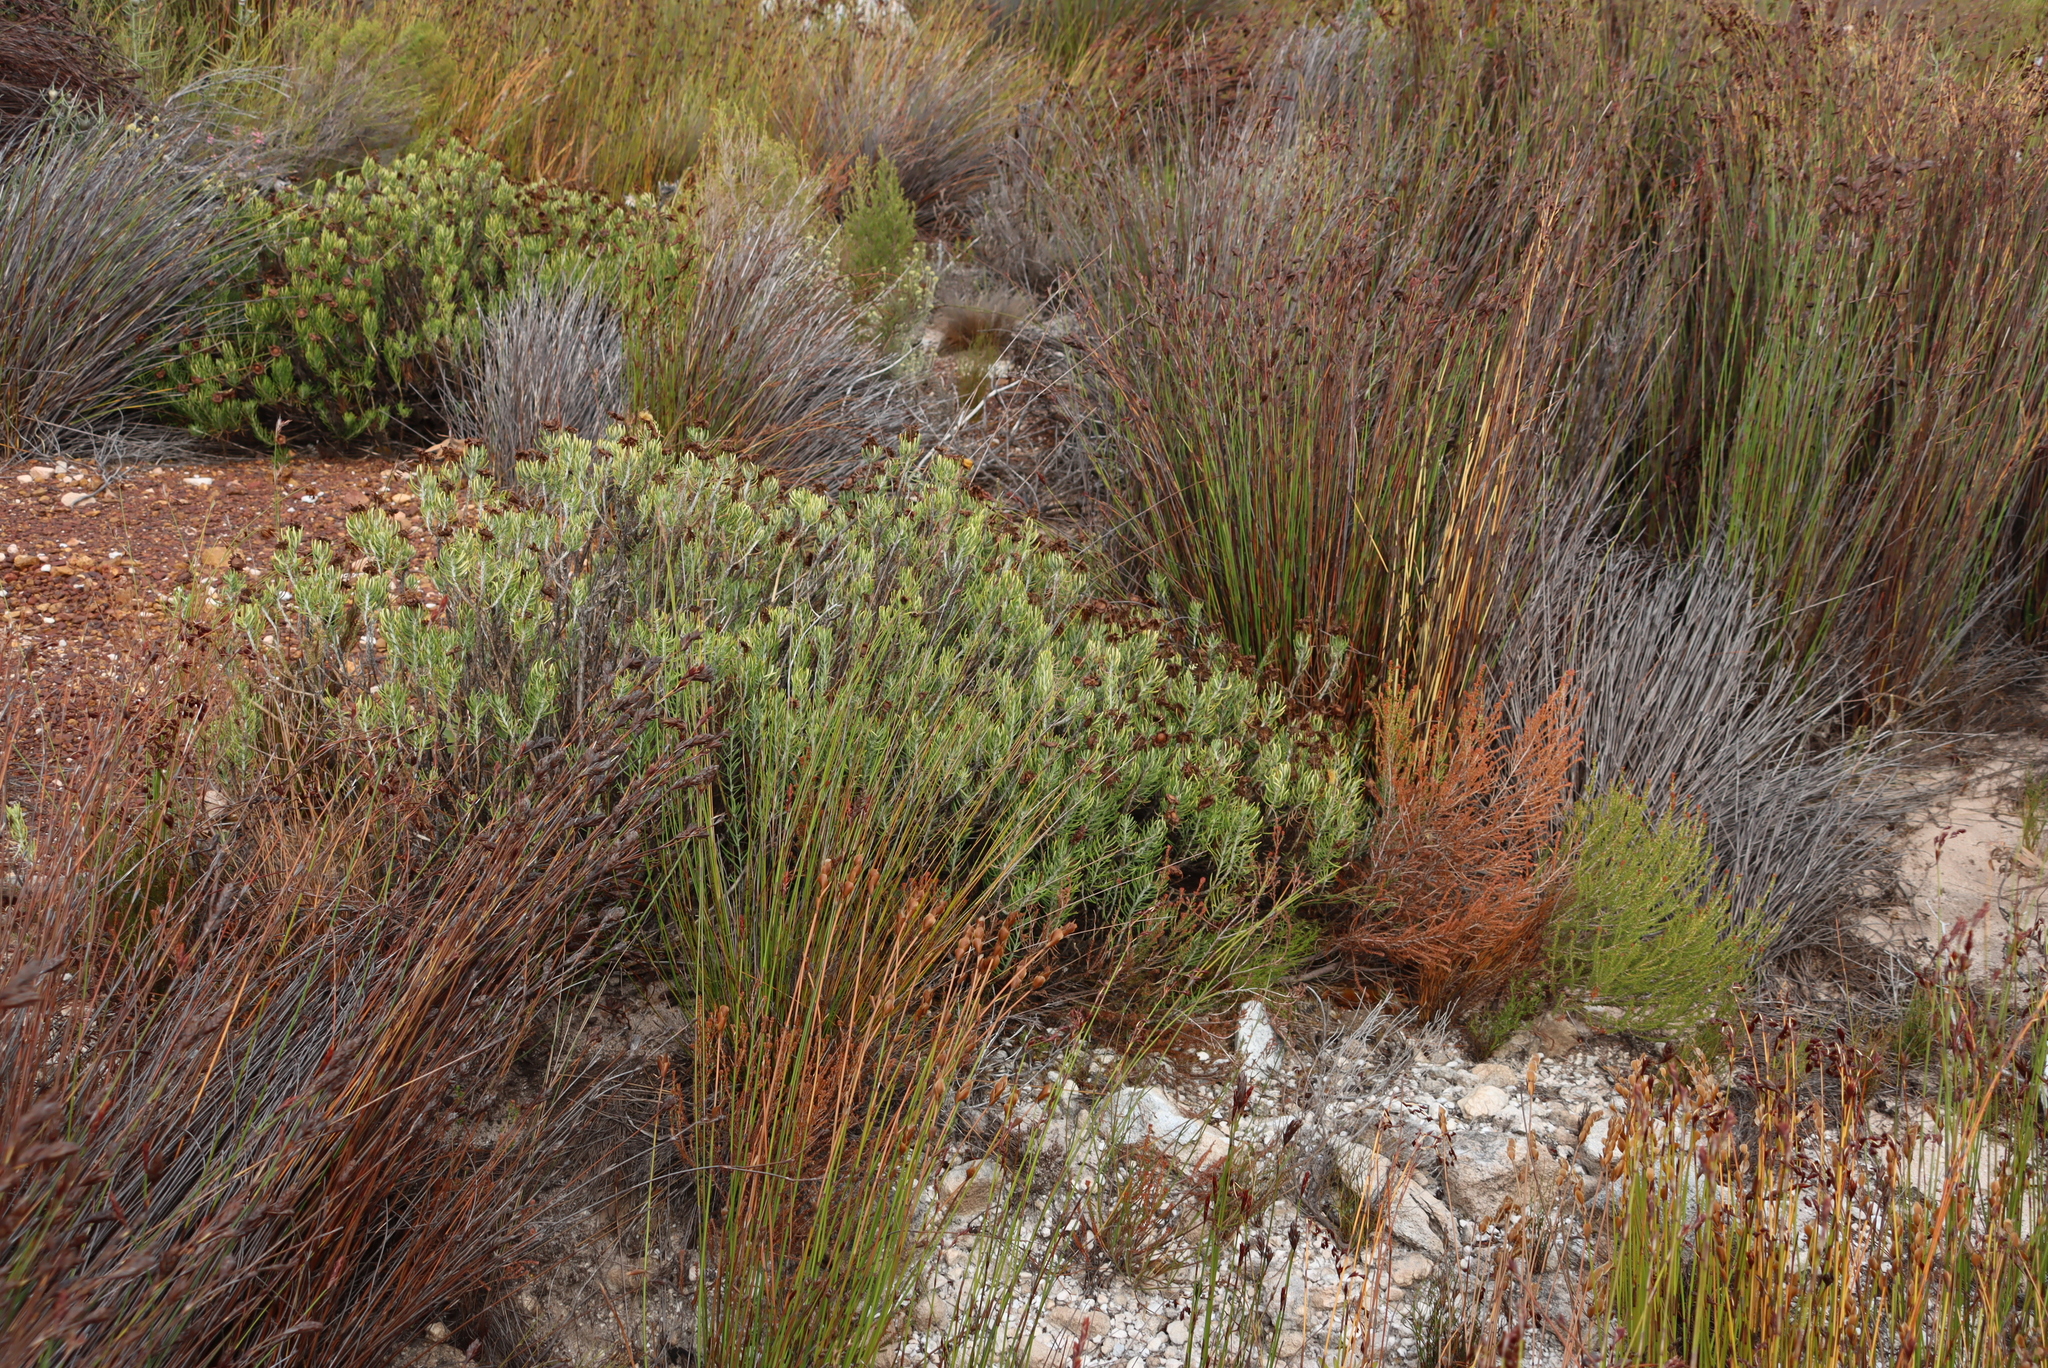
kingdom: Plantae
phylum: Tracheophyta
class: Magnoliopsida
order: Asterales
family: Asteraceae
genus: Heterolepis
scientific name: Heterolepis aliena
